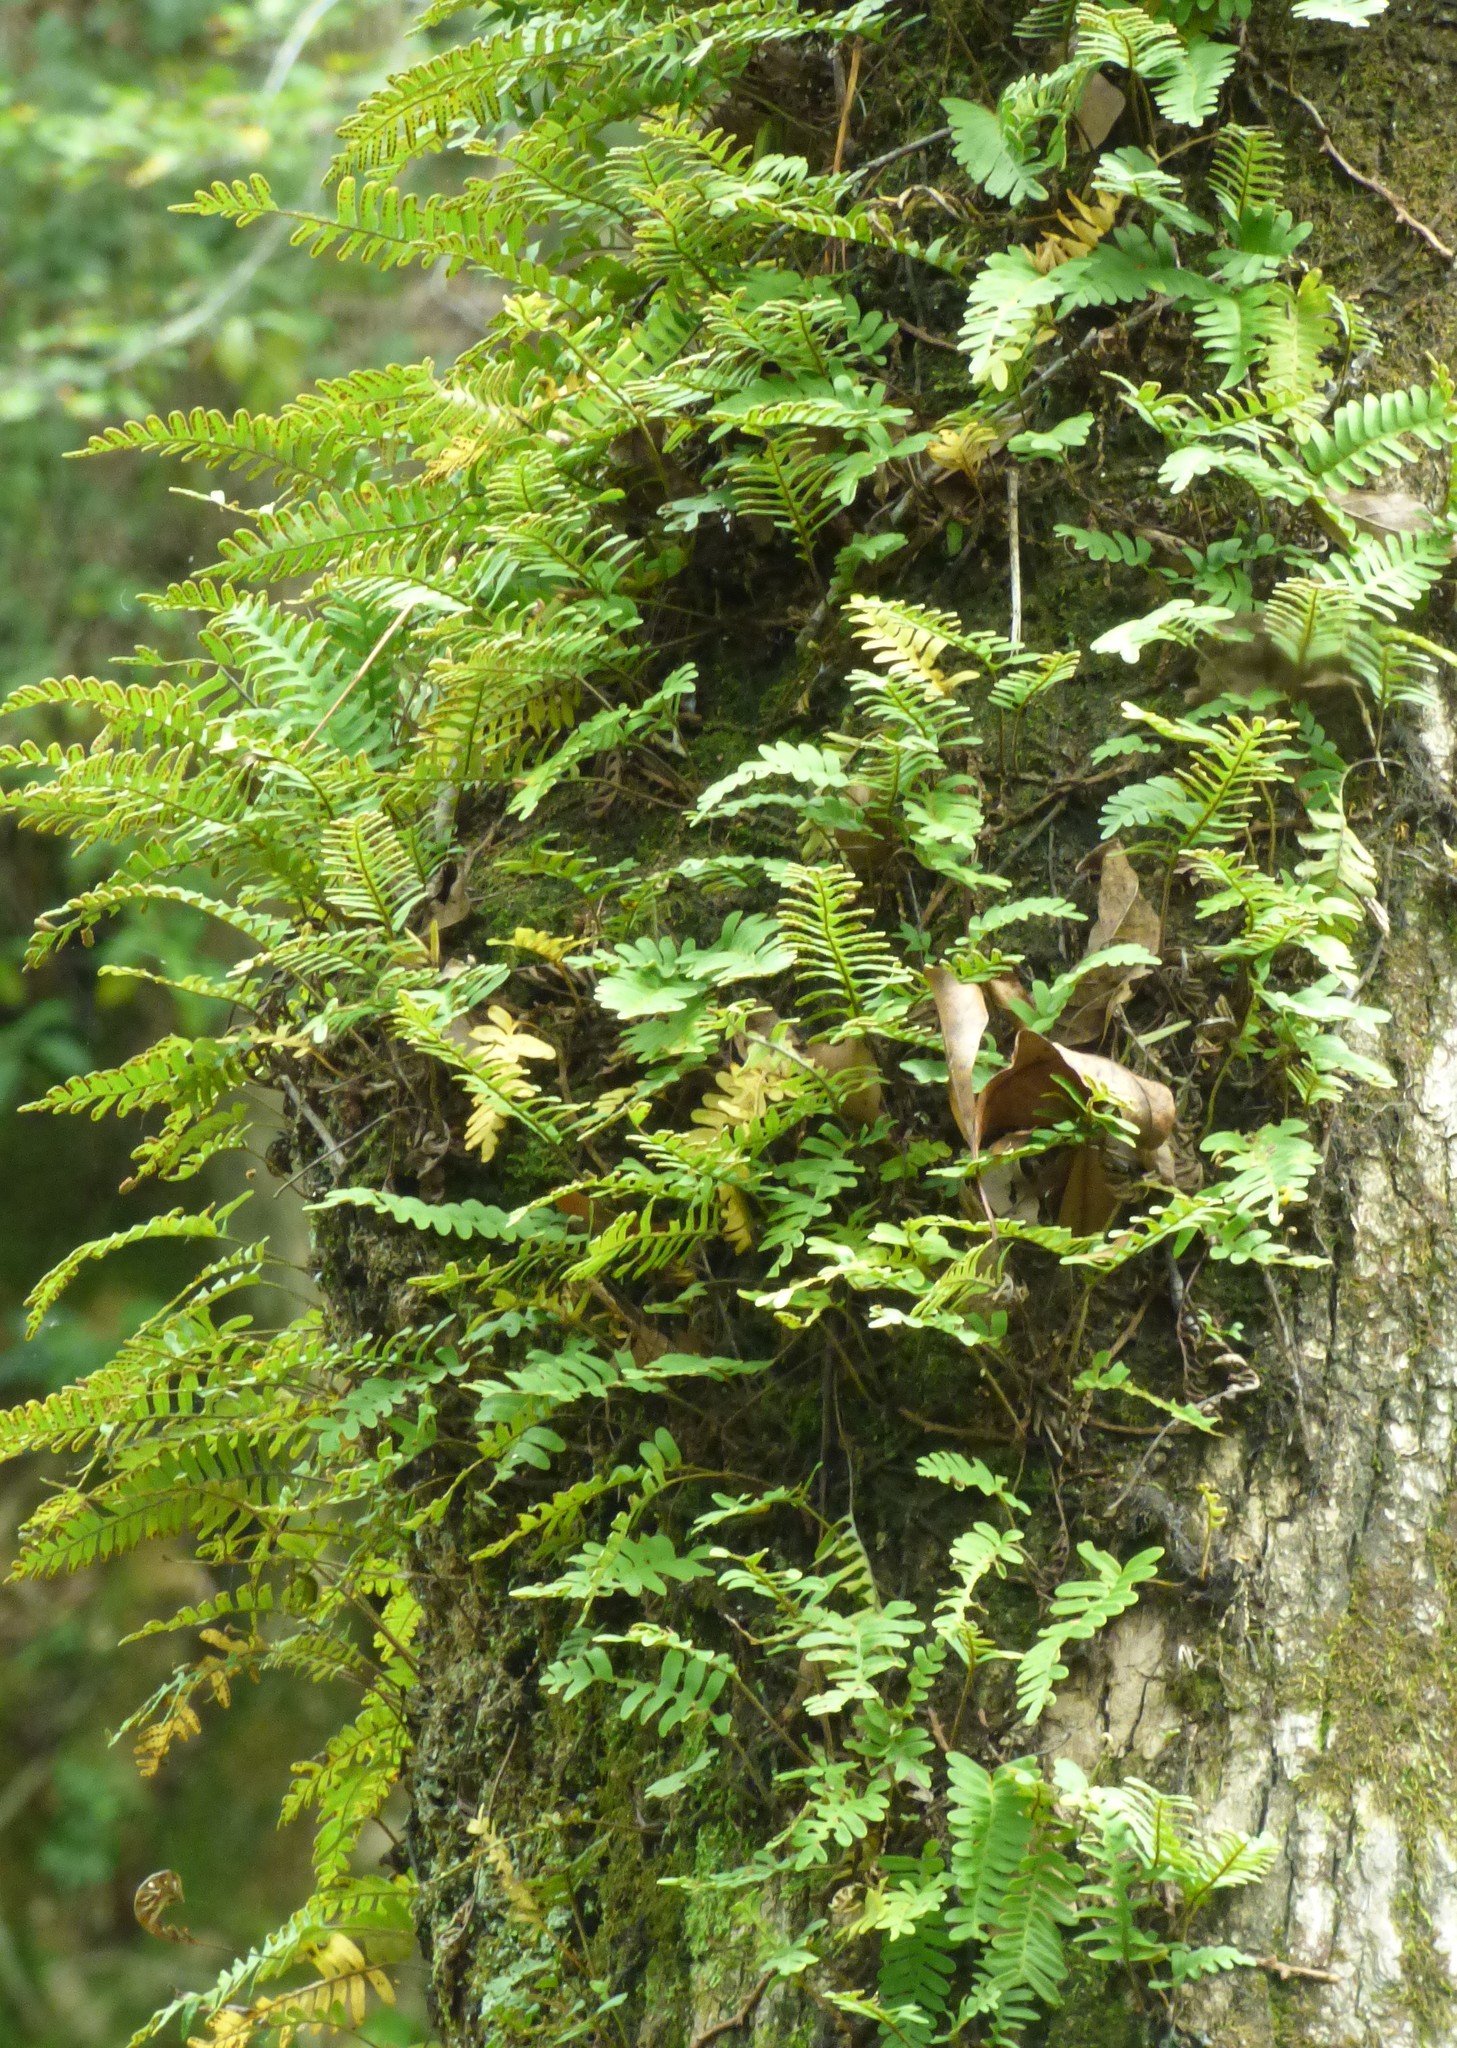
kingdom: Plantae
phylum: Tracheophyta
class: Polypodiopsida
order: Polypodiales
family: Polypodiaceae
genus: Pleopeltis
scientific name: Pleopeltis michauxiana
